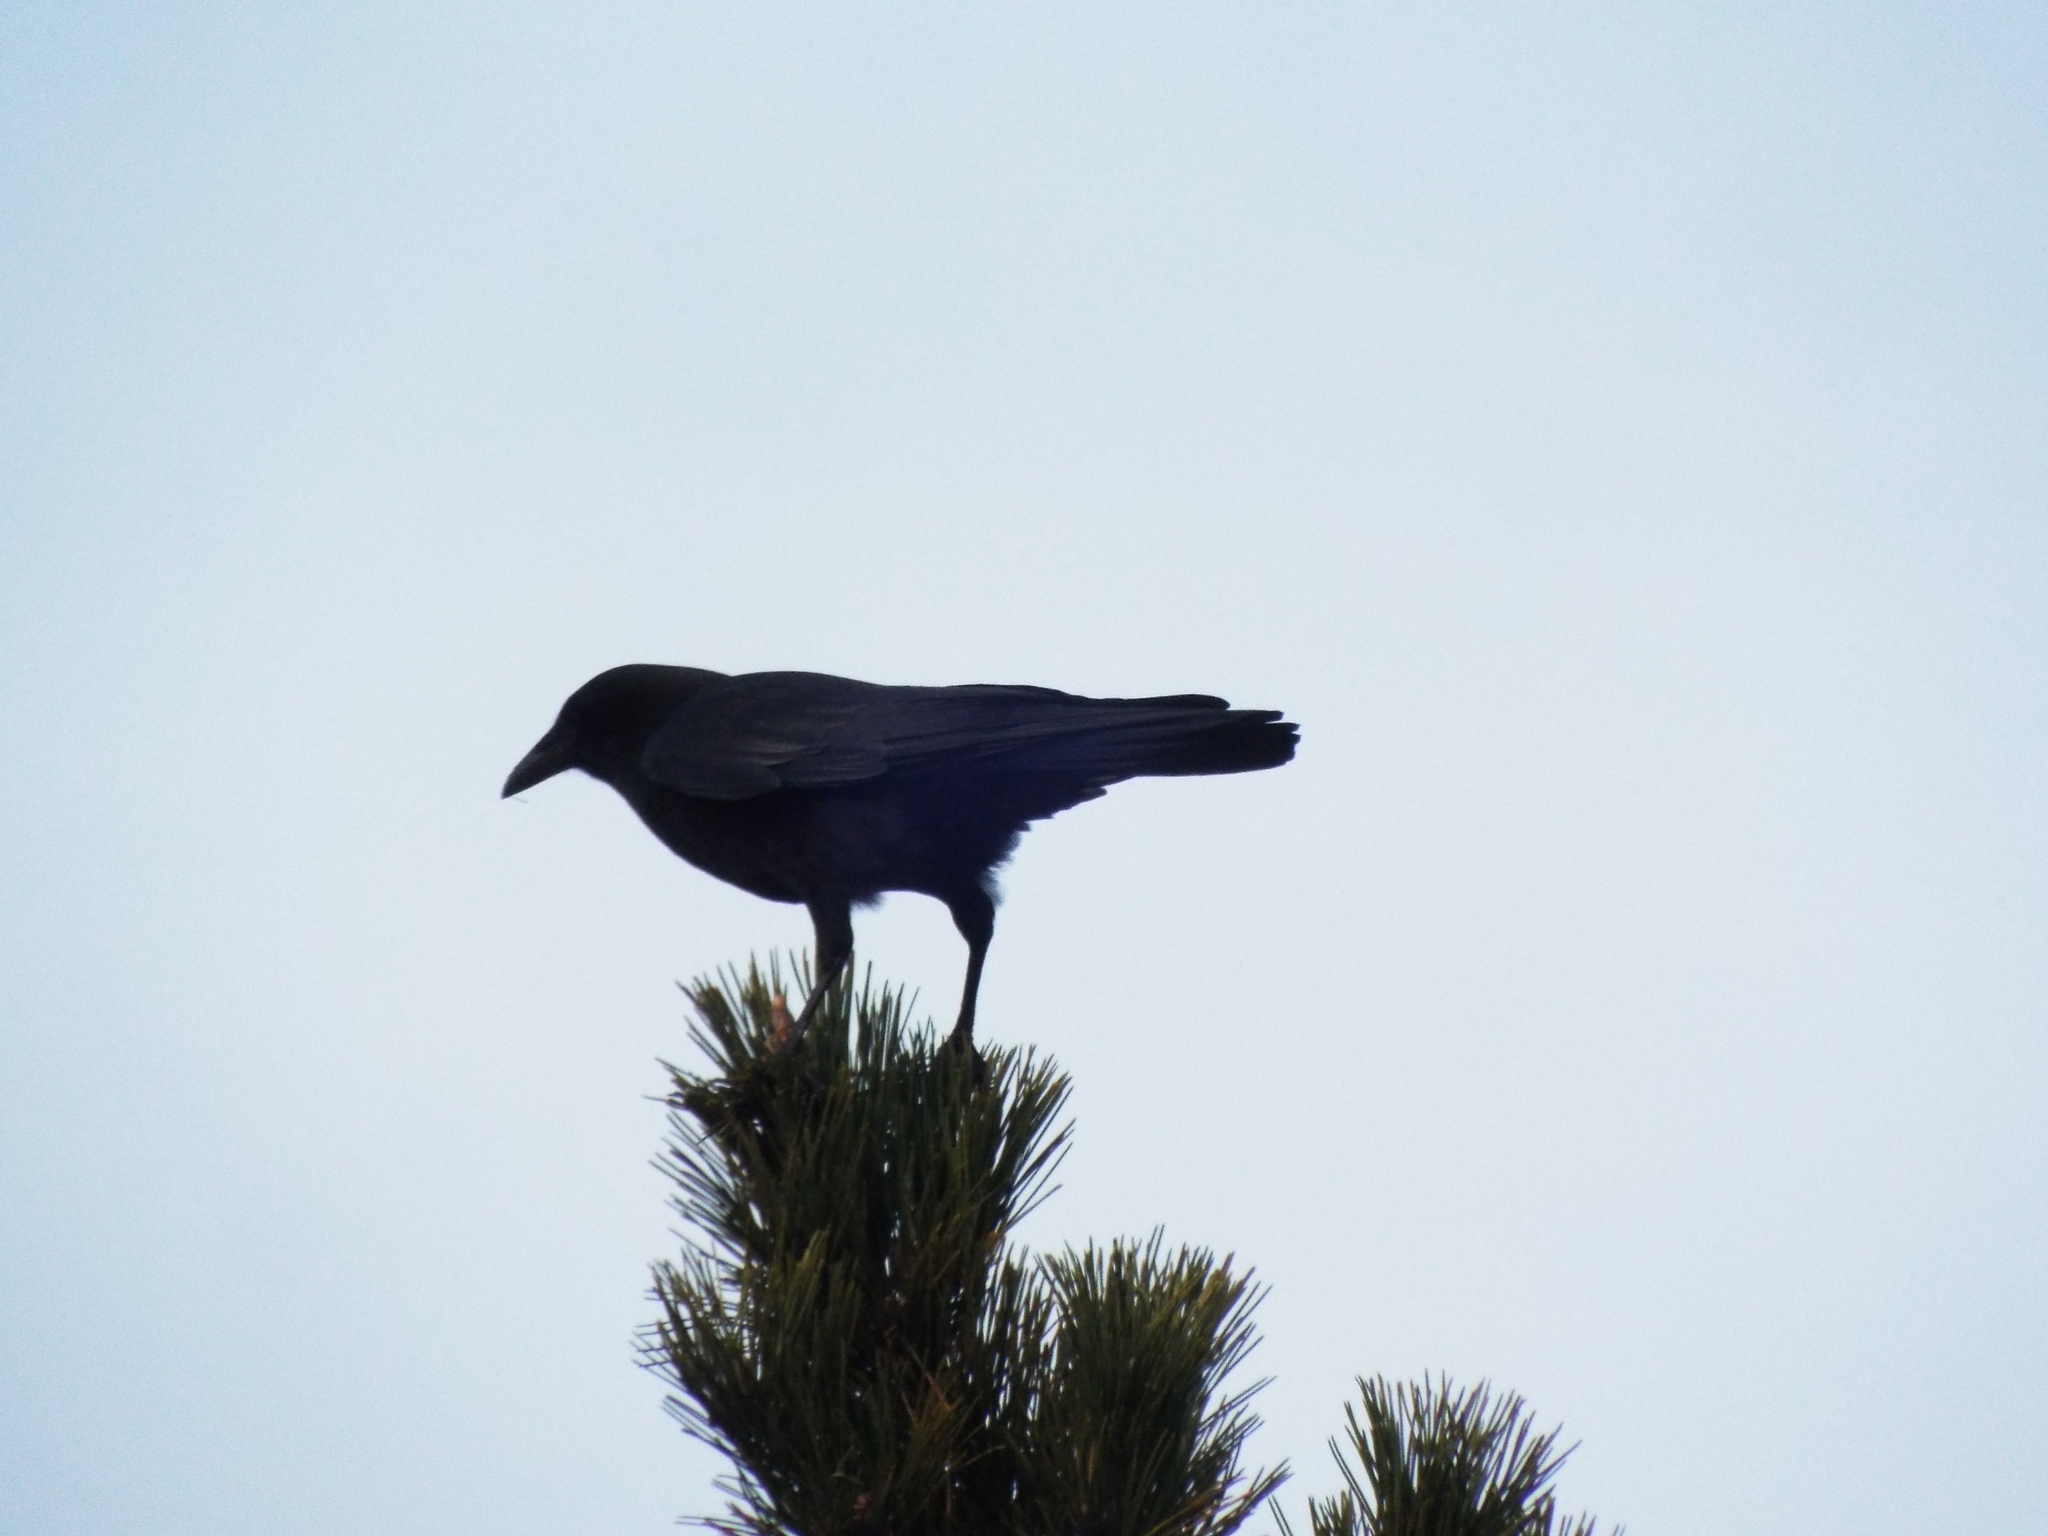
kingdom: Animalia
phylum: Chordata
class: Aves
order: Passeriformes
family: Corvidae
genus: Corvus
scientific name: Corvus brachyrhynchos
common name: American crow
